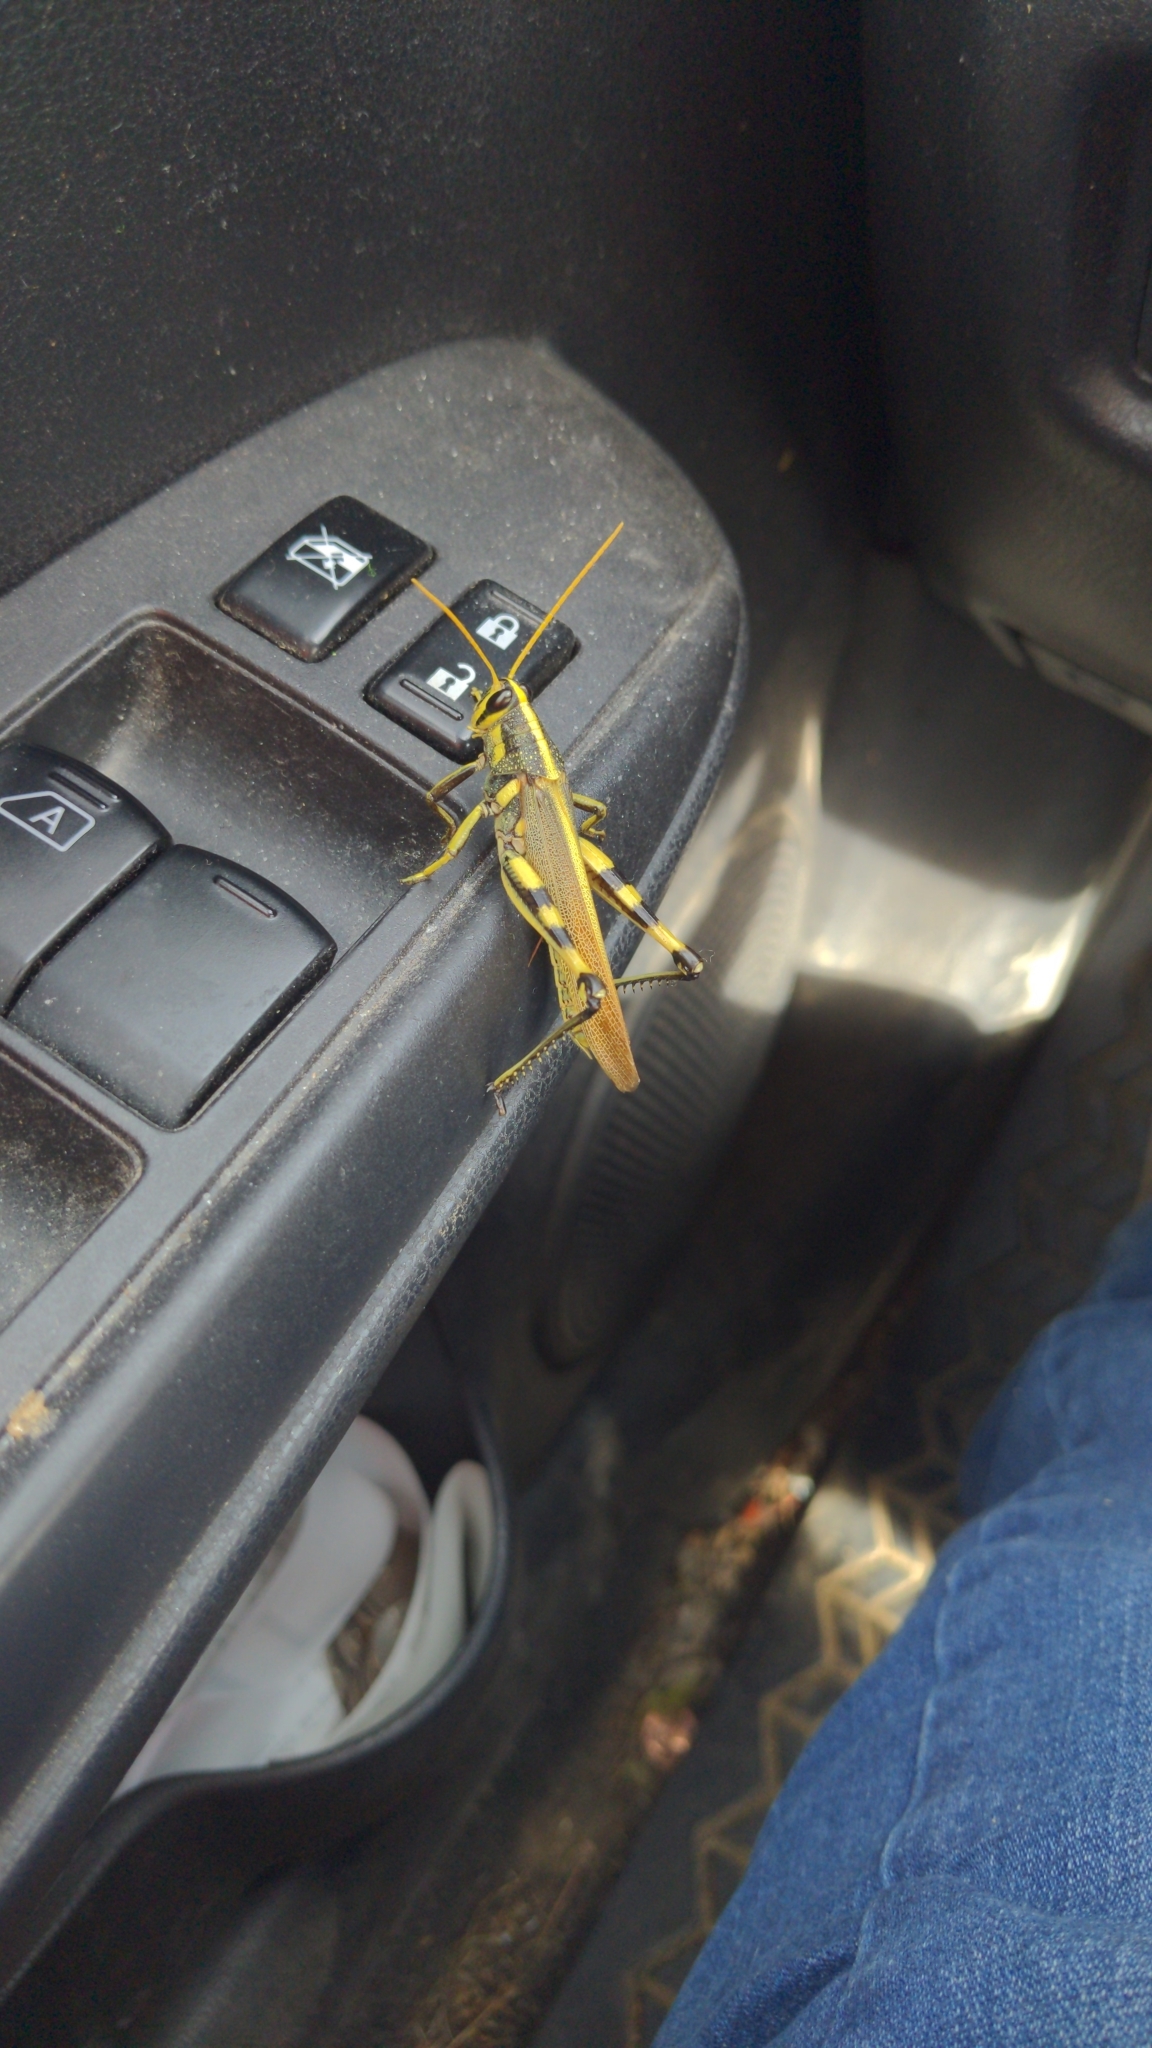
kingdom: Animalia
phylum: Arthropoda
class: Insecta
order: Orthoptera
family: Acrididae
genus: Schistocerca
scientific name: Schistocerca albolineata
